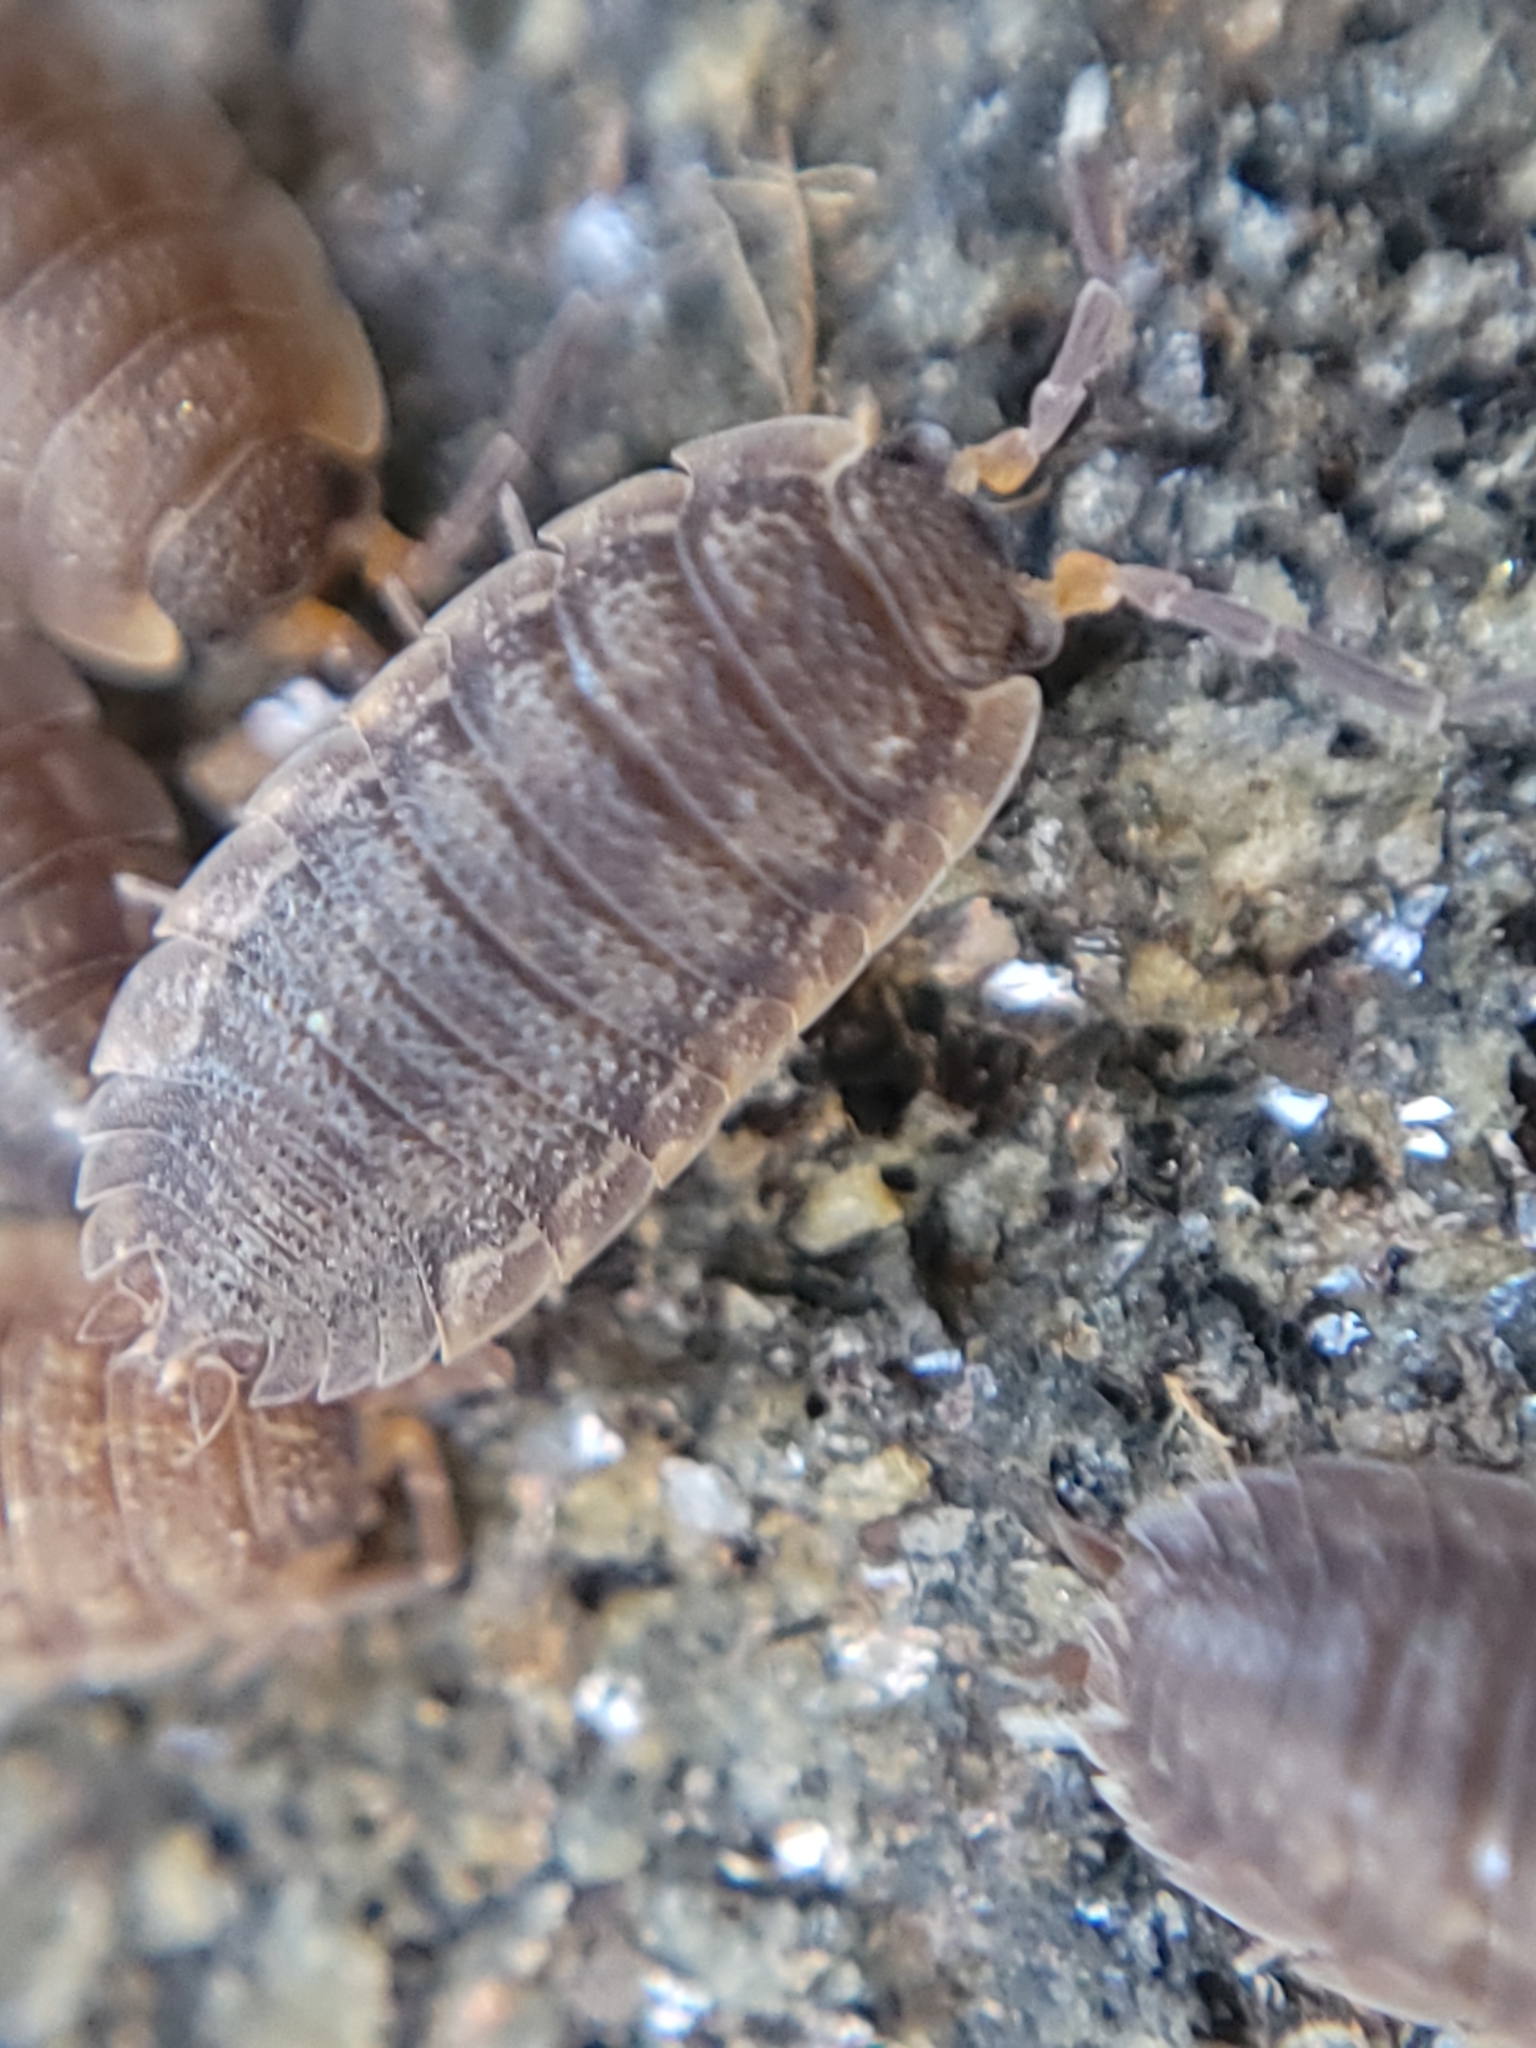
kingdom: Animalia
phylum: Arthropoda
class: Malacostraca
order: Isopoda
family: Porcellionidae
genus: Porcellio
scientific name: Porcellio scaber
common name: Common rough woodlouse
